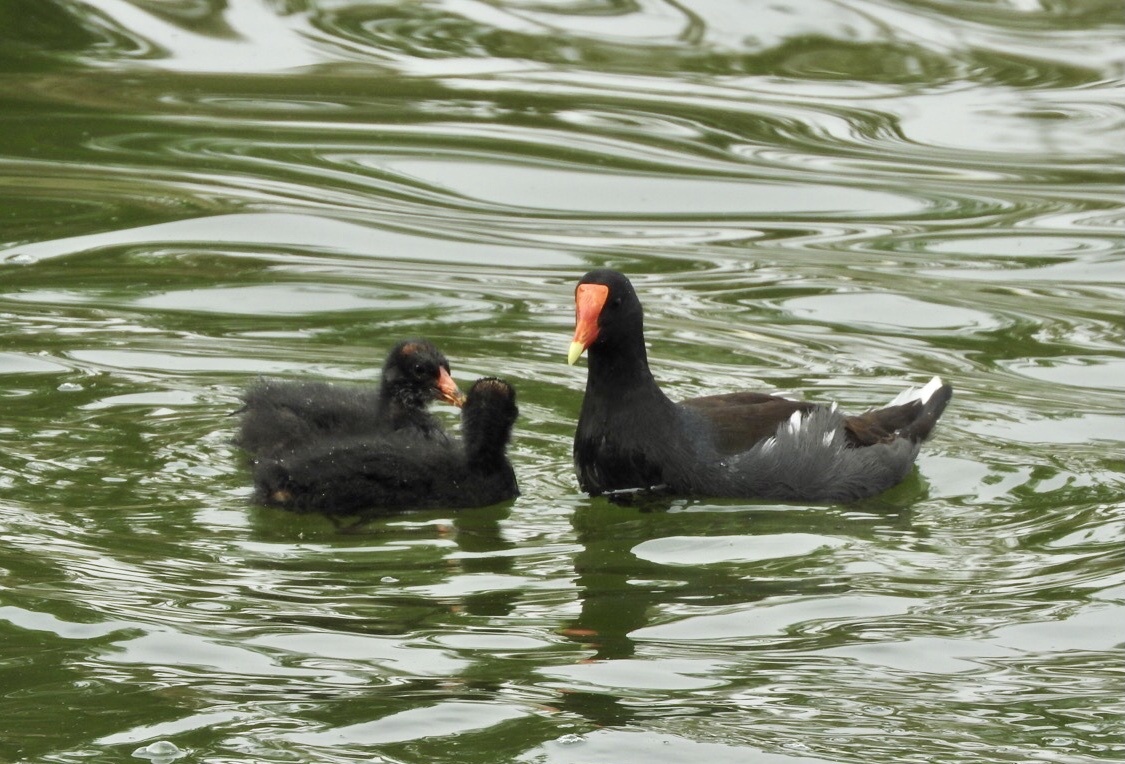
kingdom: Animalia
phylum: Chordata
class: Aves
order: Gruiformes
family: Rallidae
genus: Gallinula
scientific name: Gallinula chloropus
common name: Common moorhen
